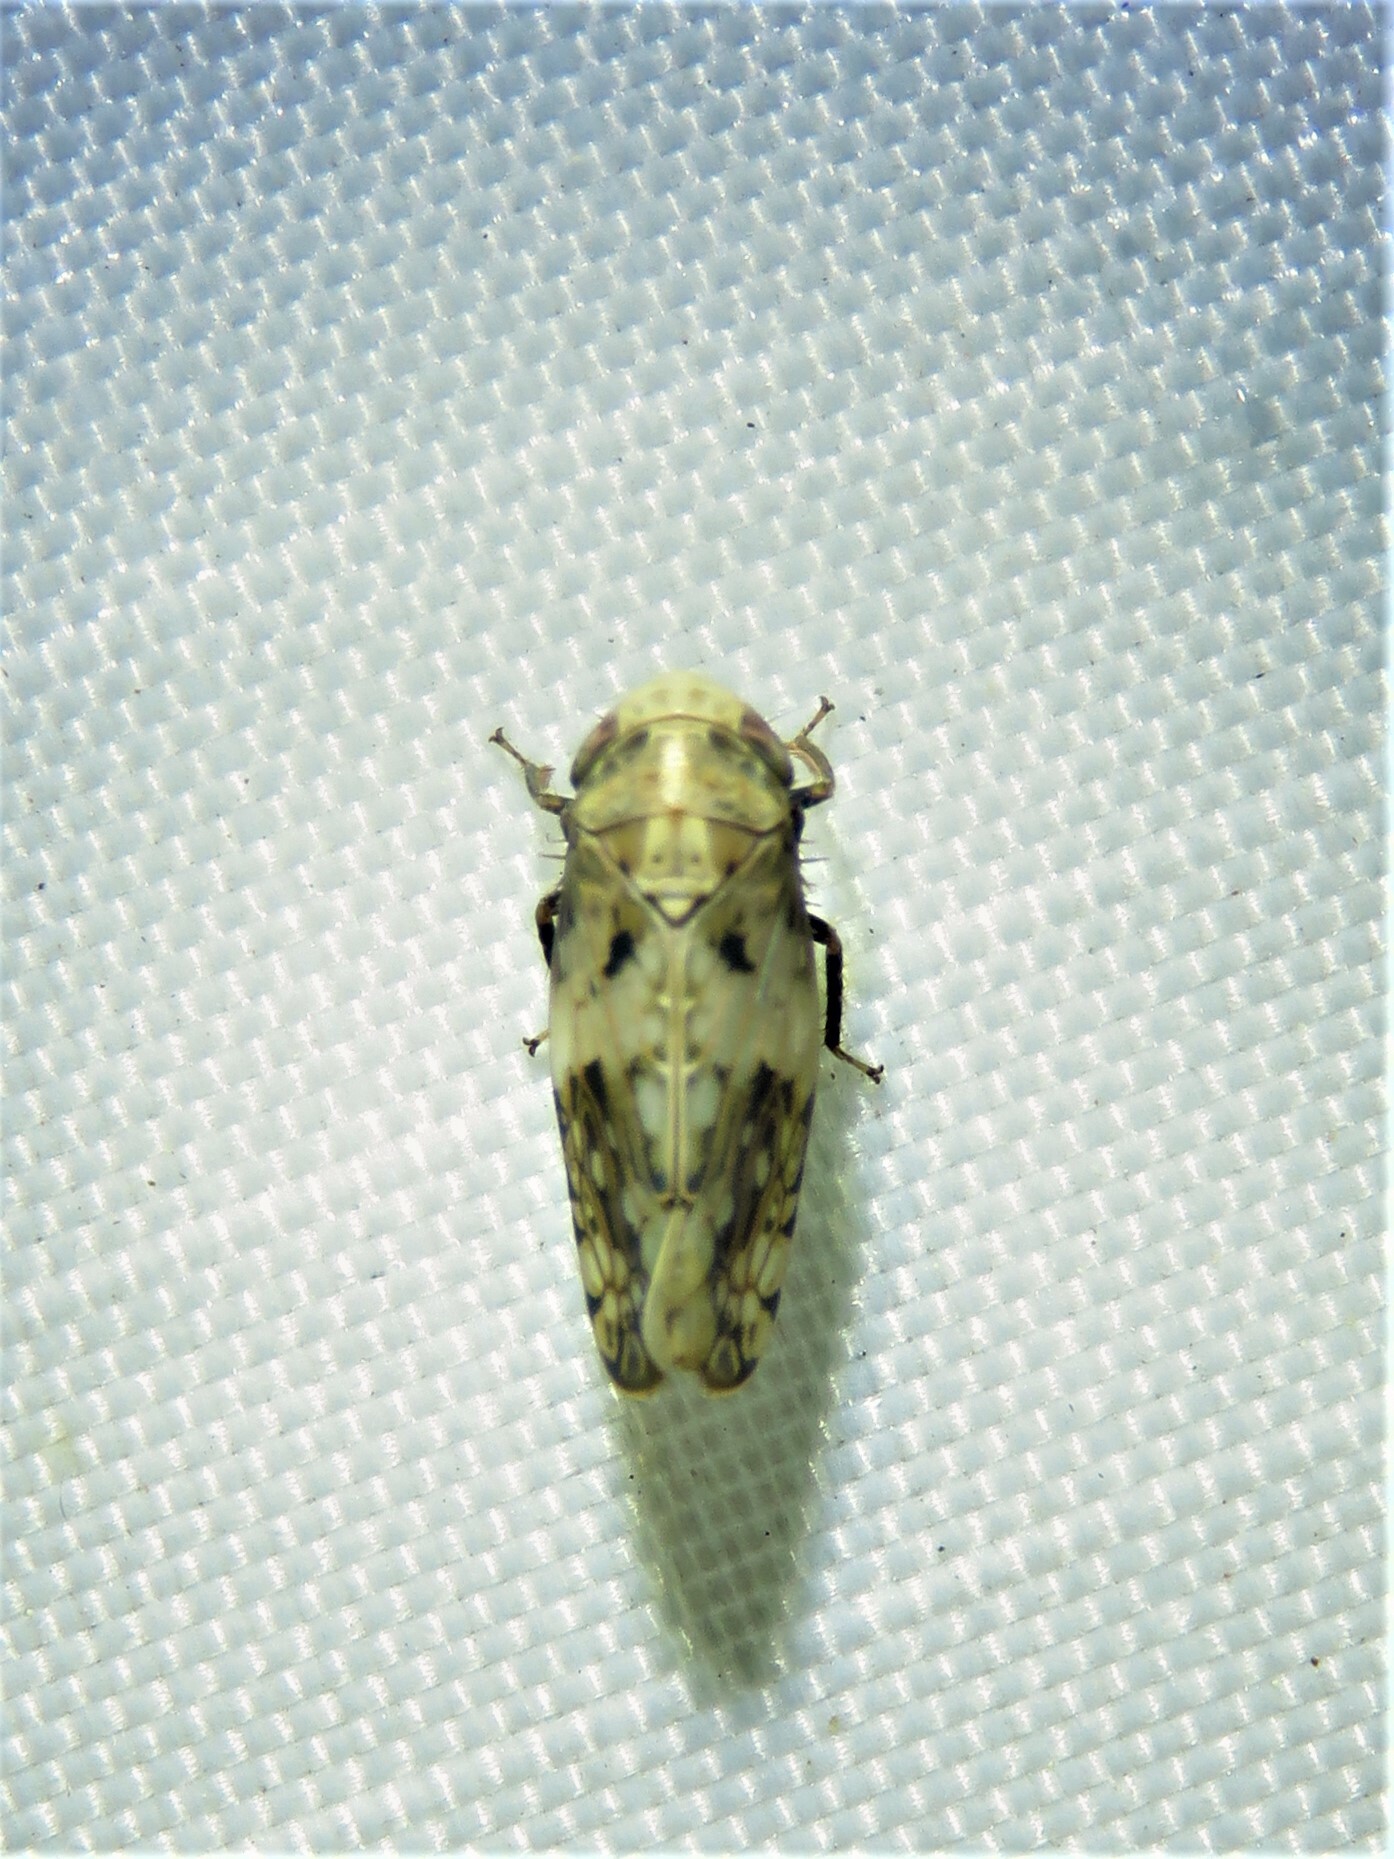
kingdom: Animalia
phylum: Arthropoda
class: Insecta
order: Hemiptera
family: Cicadellidae
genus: Menosoma
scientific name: Menosoma cinctum
